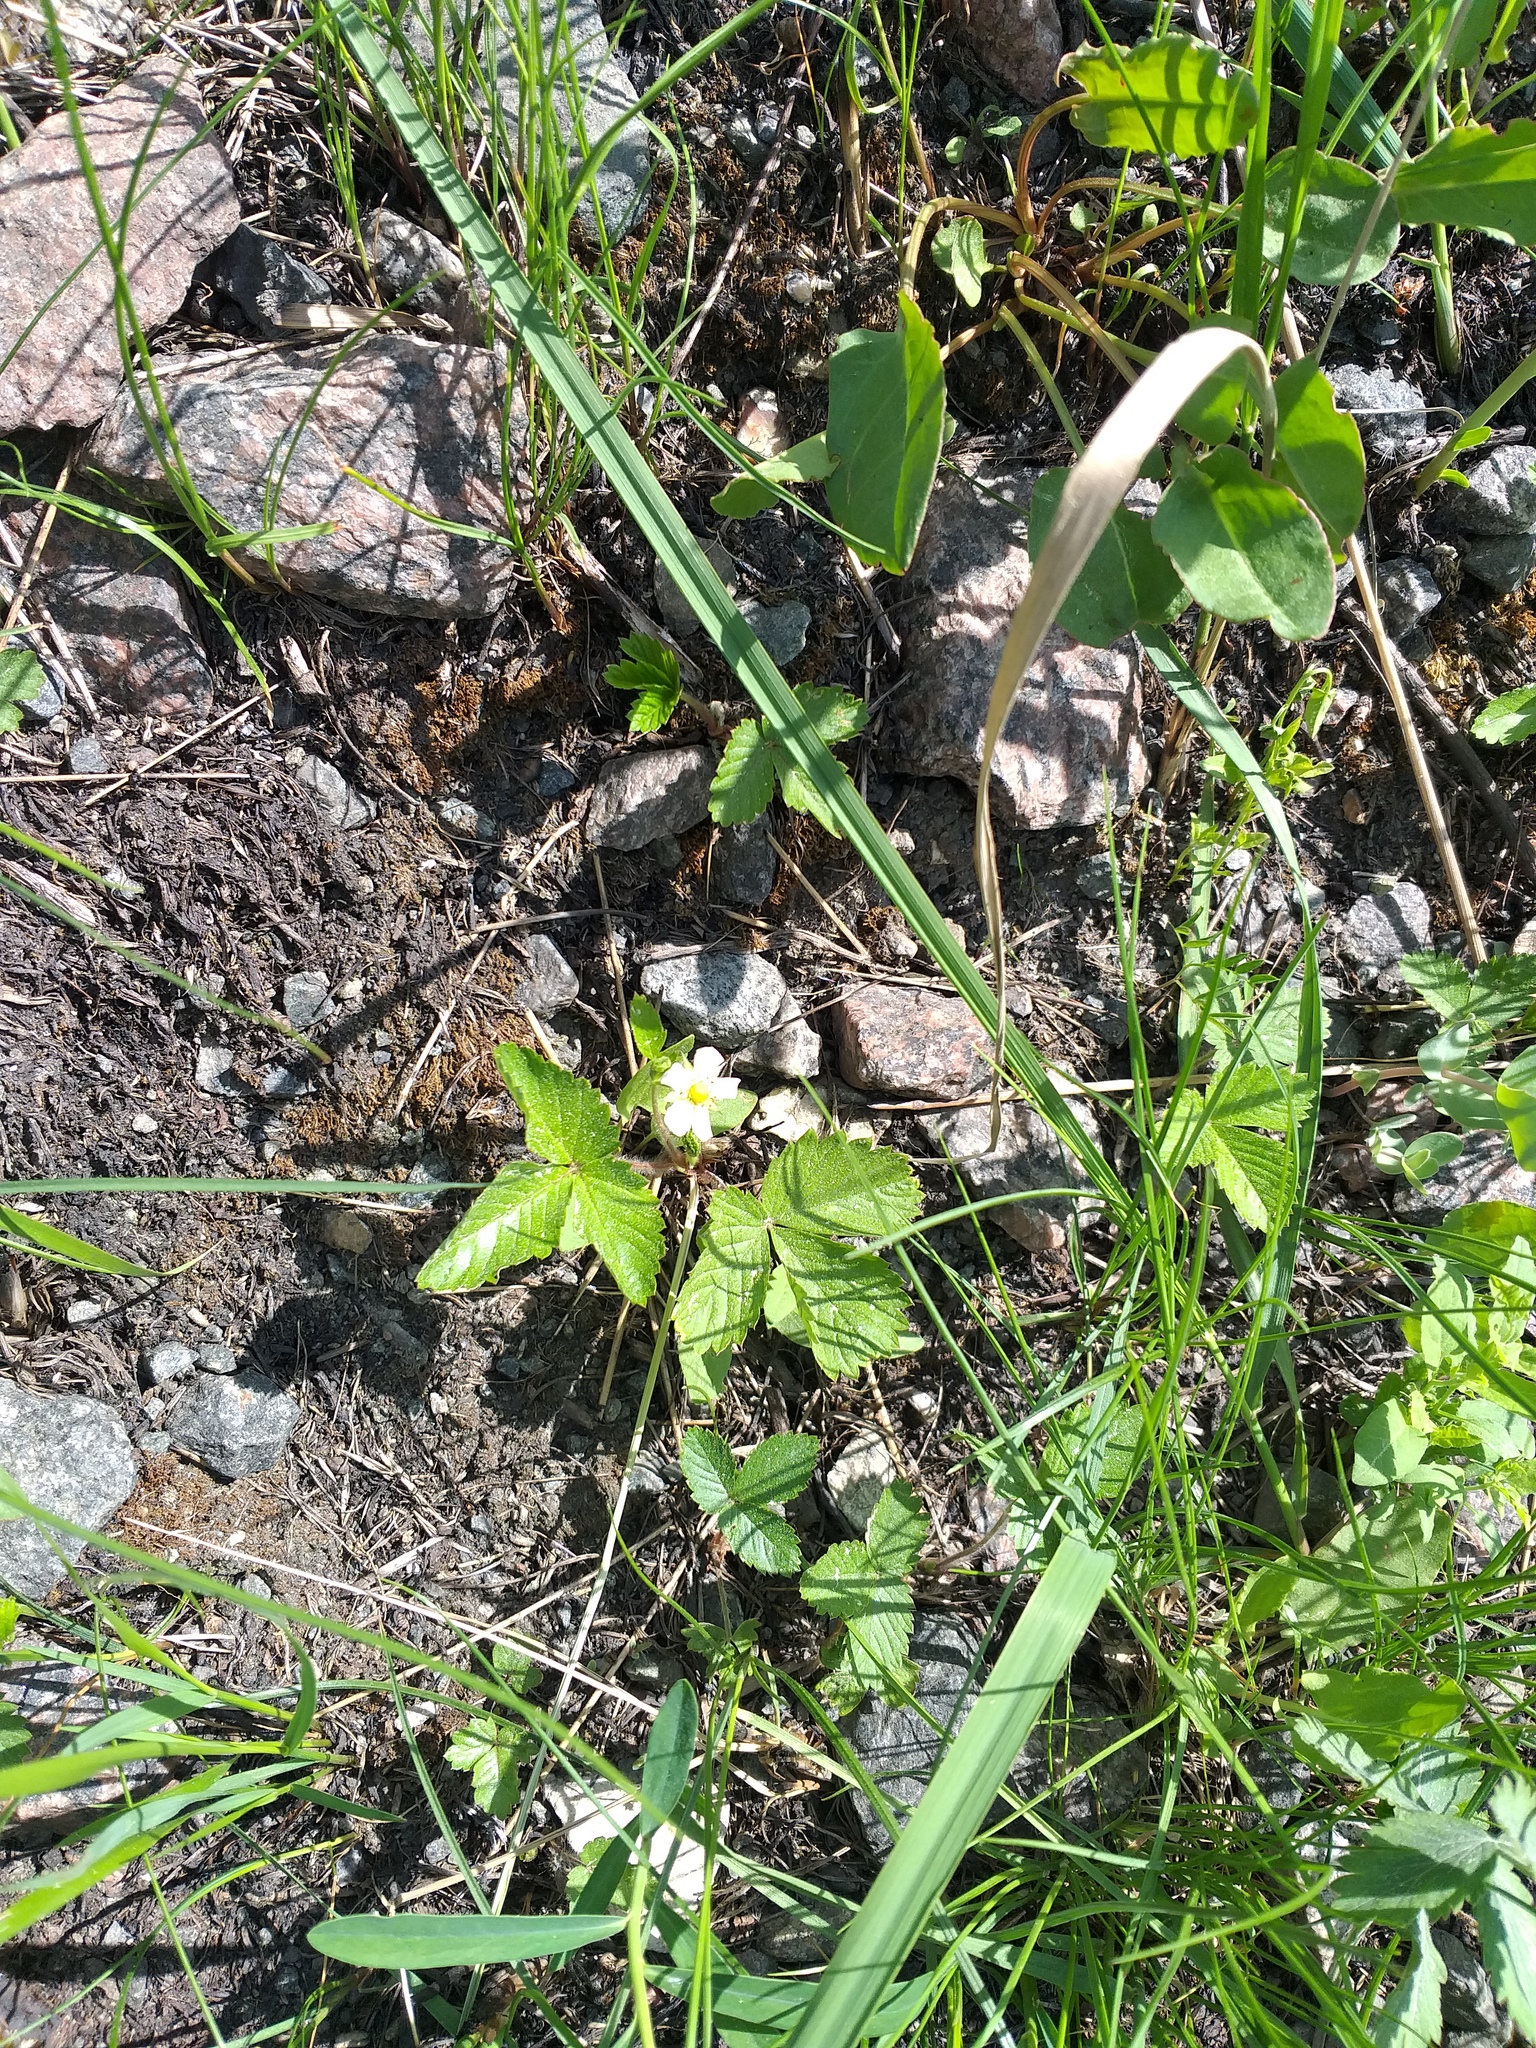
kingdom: Plantae
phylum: Tracheophyta
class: Magnoliopsida
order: Rosales
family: Rosaceae
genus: Fragaria
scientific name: Fragaria vesca
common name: Wild strawberry
